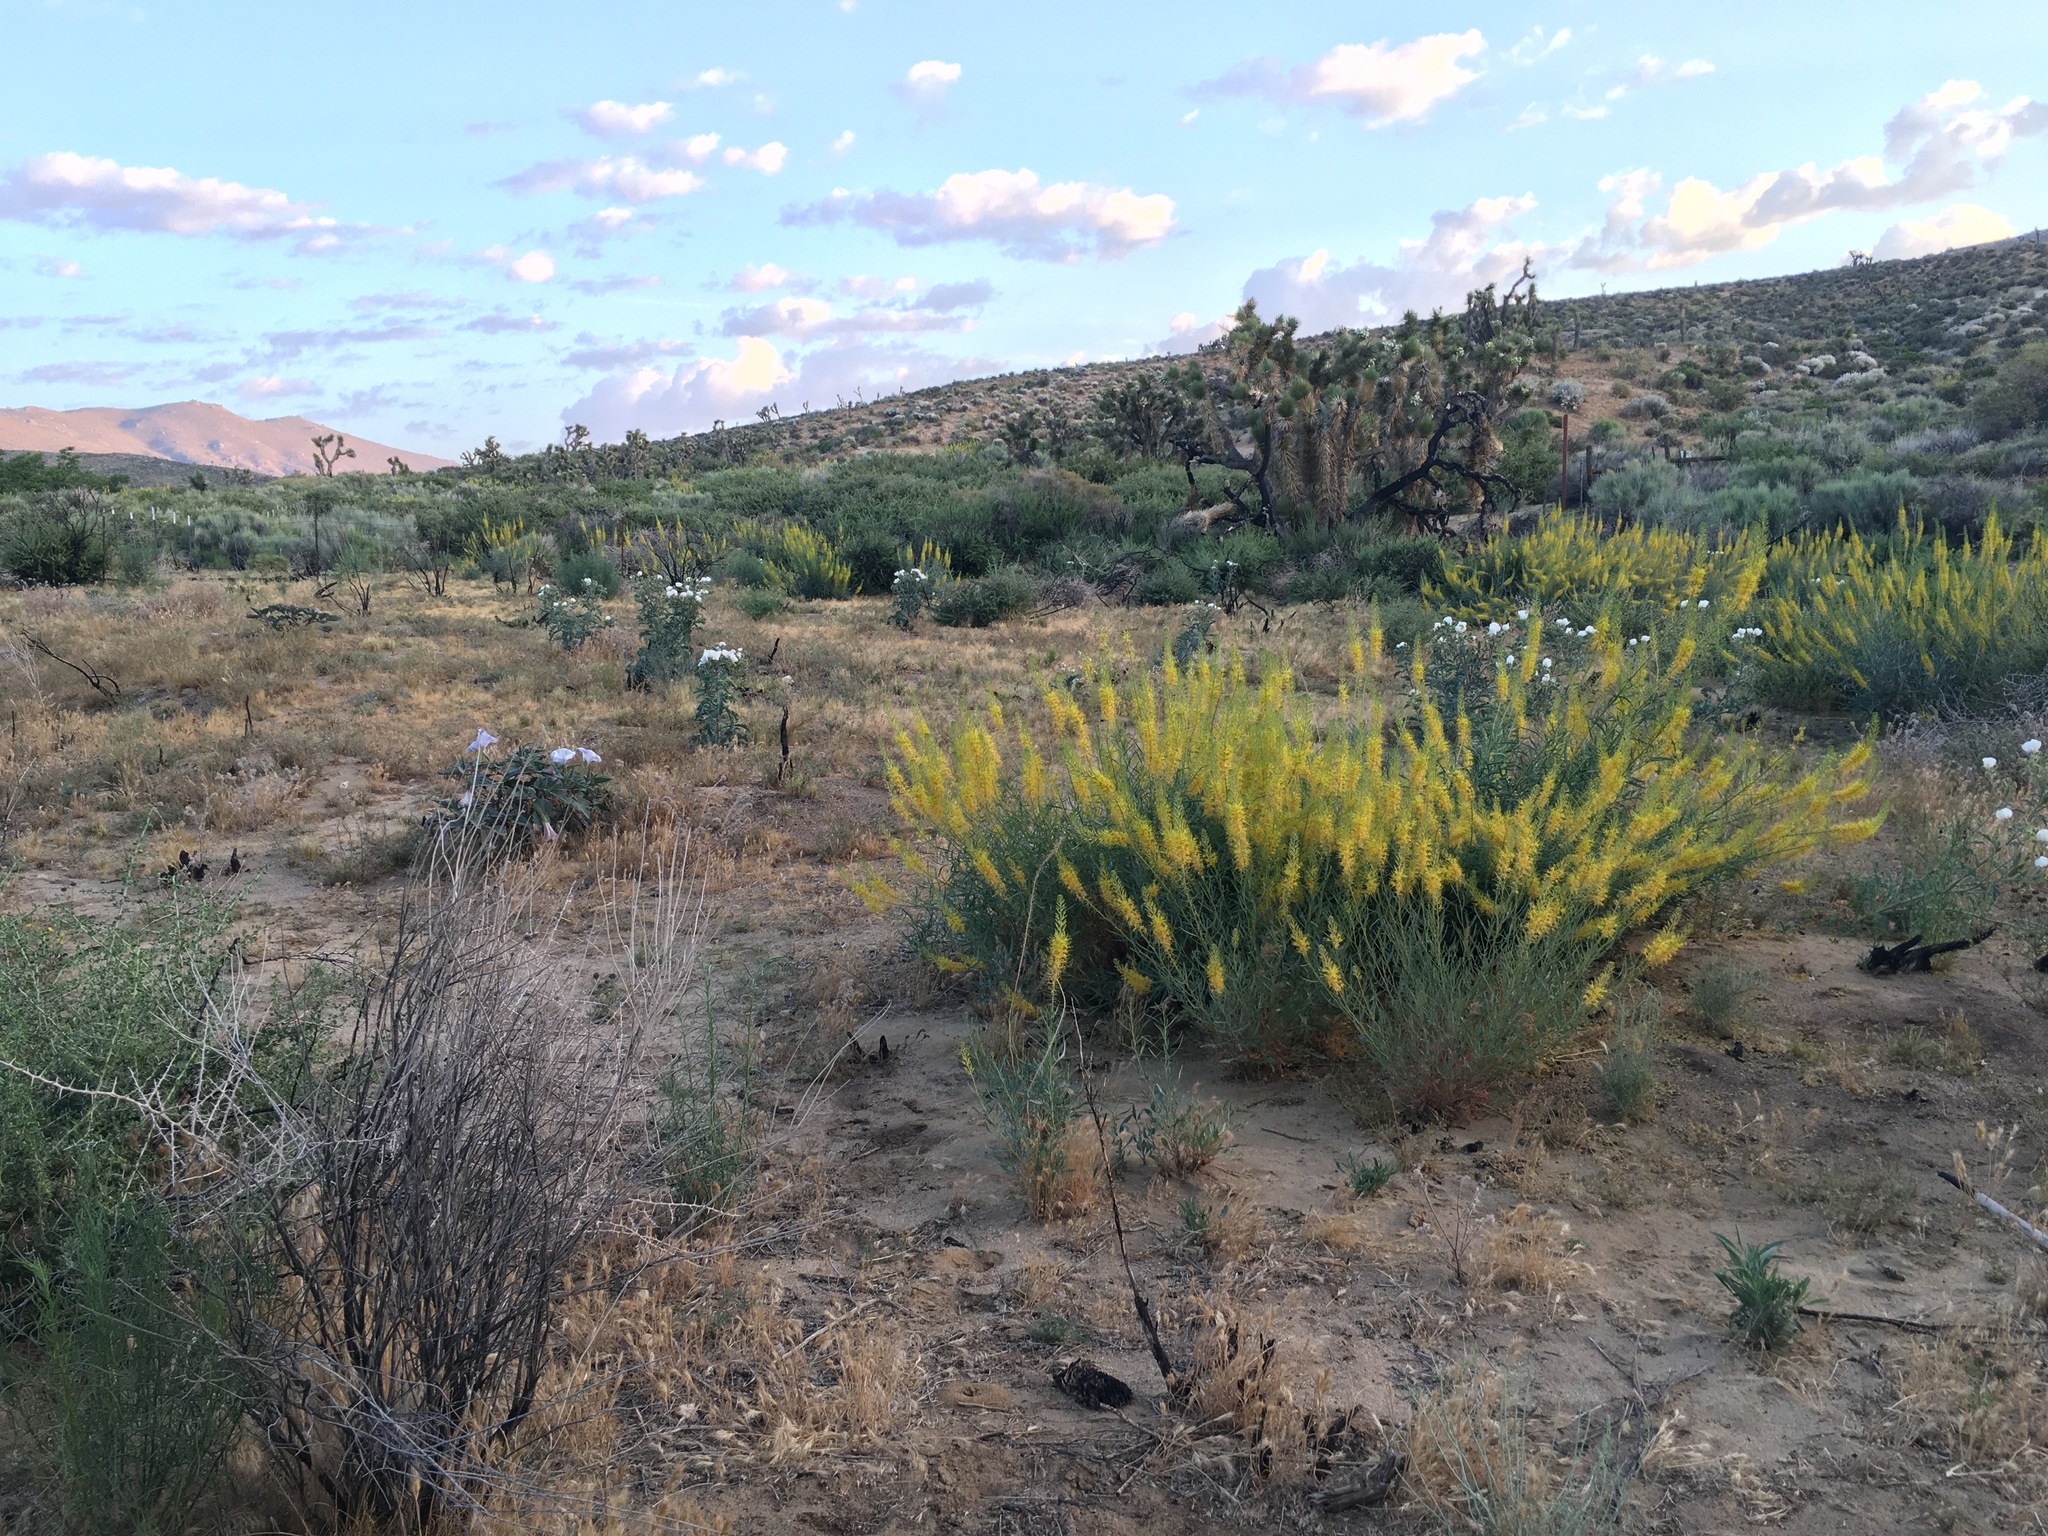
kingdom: Plantae
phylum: Tracheophyta
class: Magnoliopsida
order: Brassicales
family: Brassicaceae
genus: Stanleya
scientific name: Stanleya pinnata
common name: Prince's-plume
